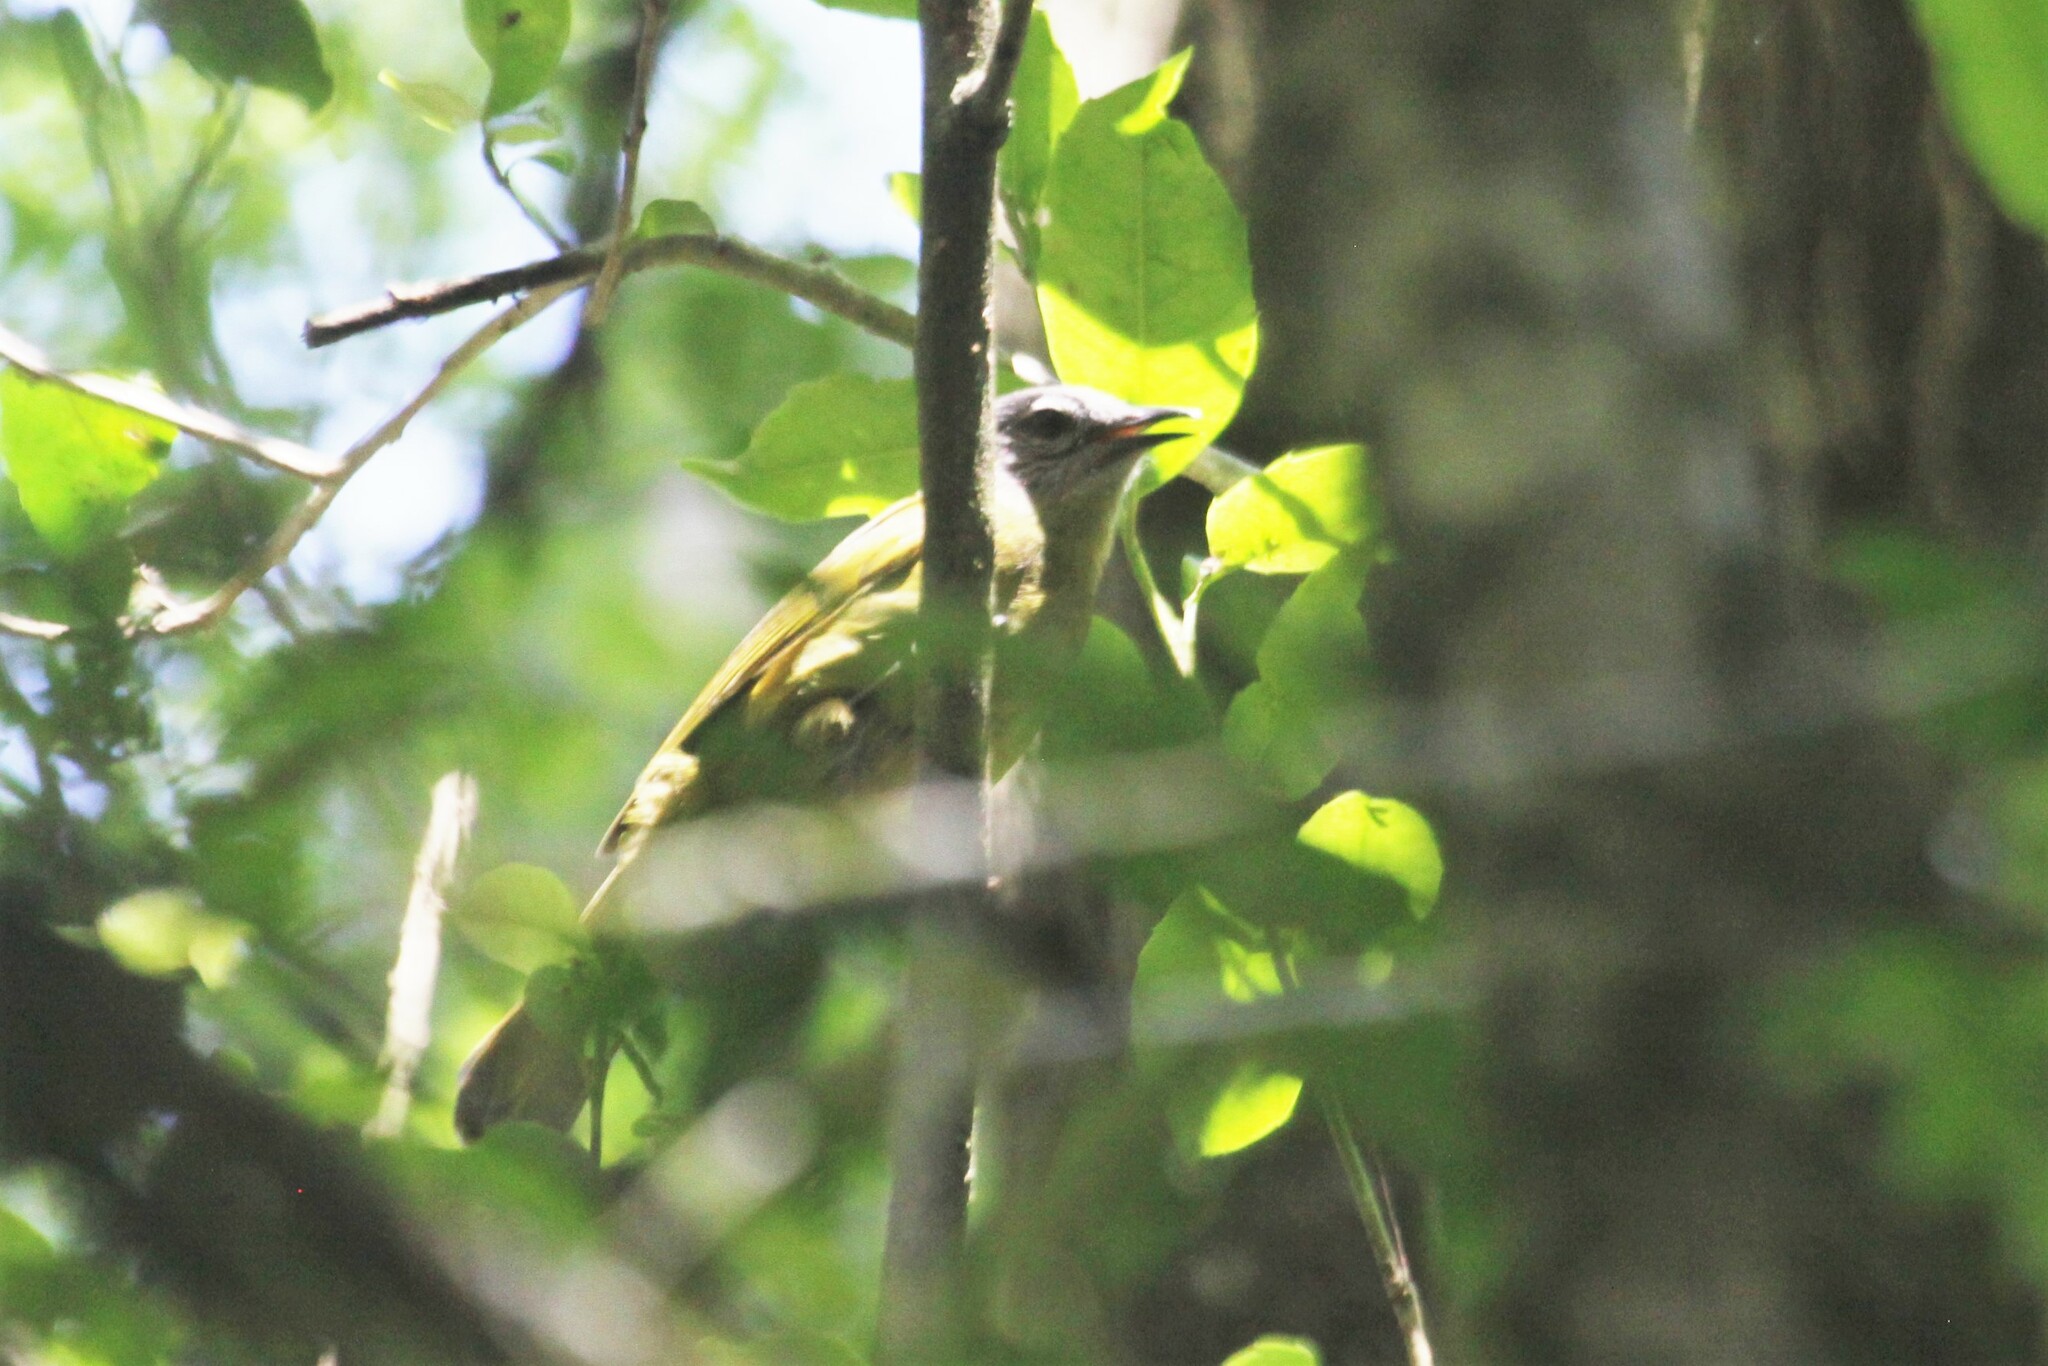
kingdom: Animalia
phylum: Chordata
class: Aves
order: Passeriformes
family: Pycnonotidae
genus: Arizelocichla
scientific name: Arizelocichla milanjensis
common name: Stripe-cheeked greenbul
